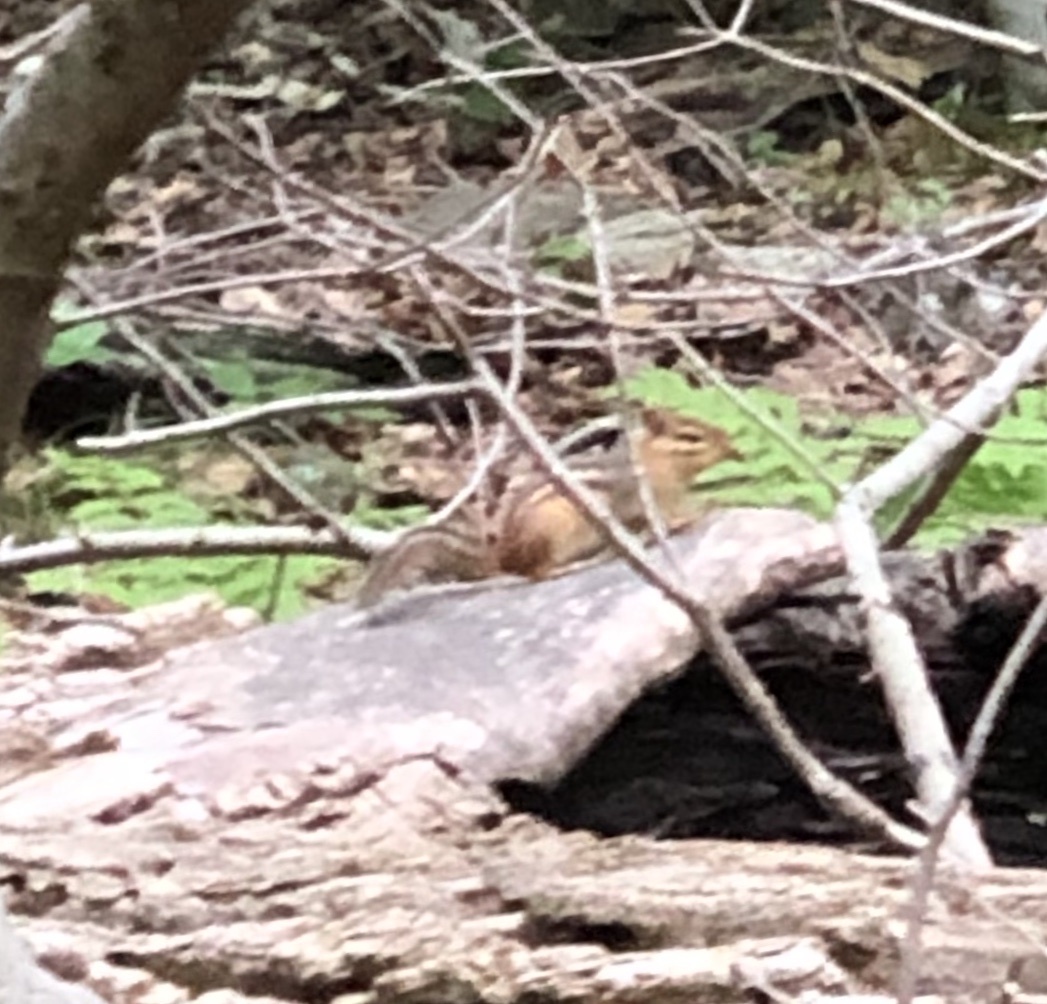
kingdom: Animalia
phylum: Chordata
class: Mammalia
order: Rodentia
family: Sciuridae
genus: Tamias
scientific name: Tamias striatus
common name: Eastern chipmunk
